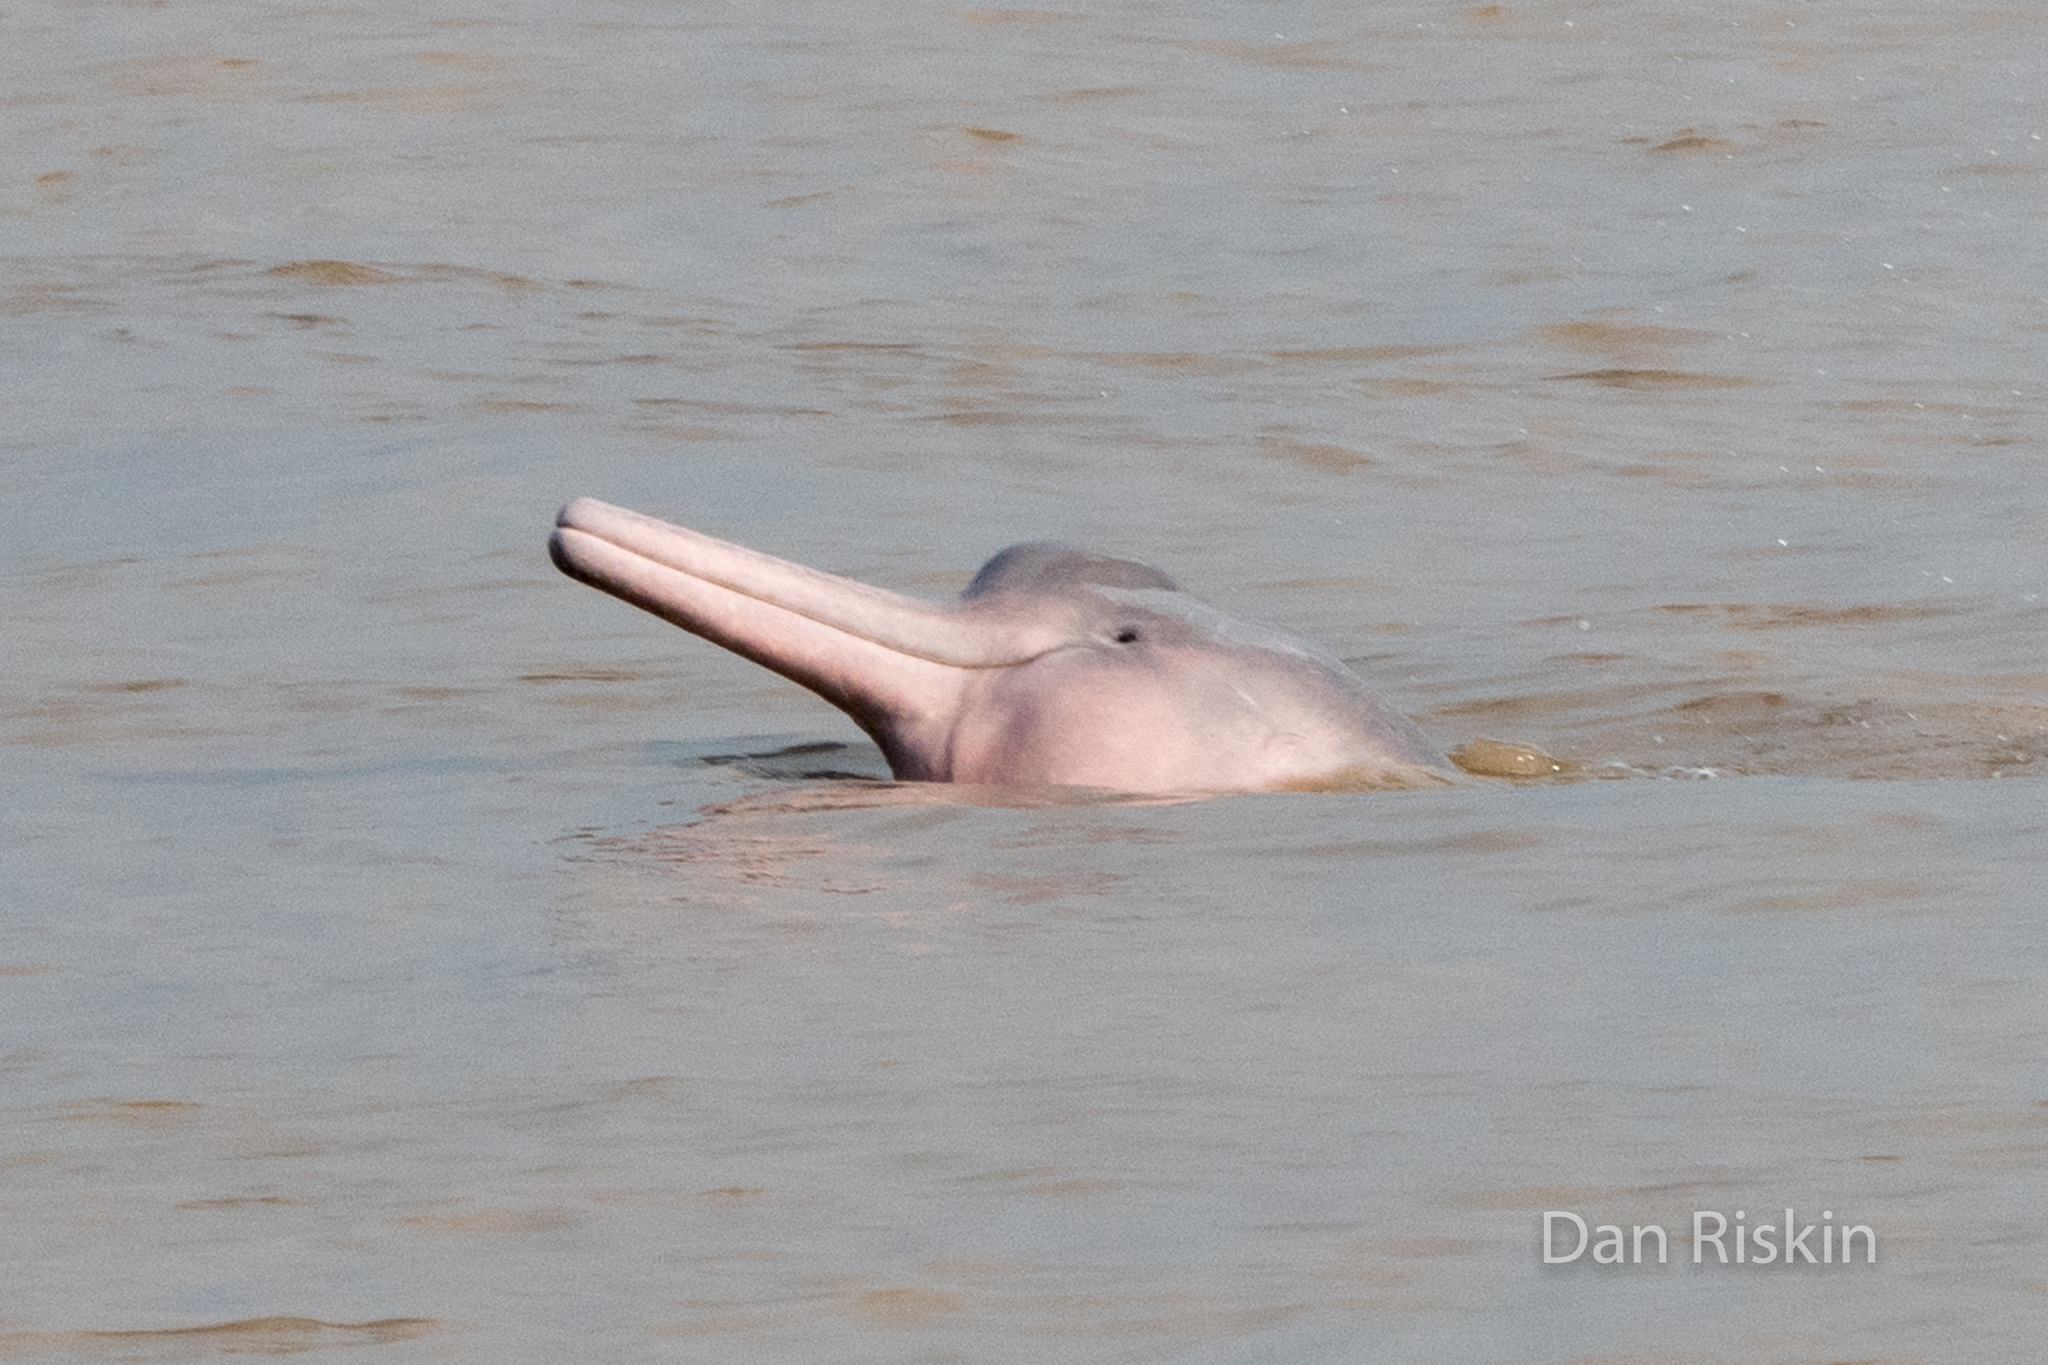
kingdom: Animalia
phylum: Chordata
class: Mammalia
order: Cetacea
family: Iniidae
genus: Inia
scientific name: Inia geoffrensis
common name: Amazon river dolphin
